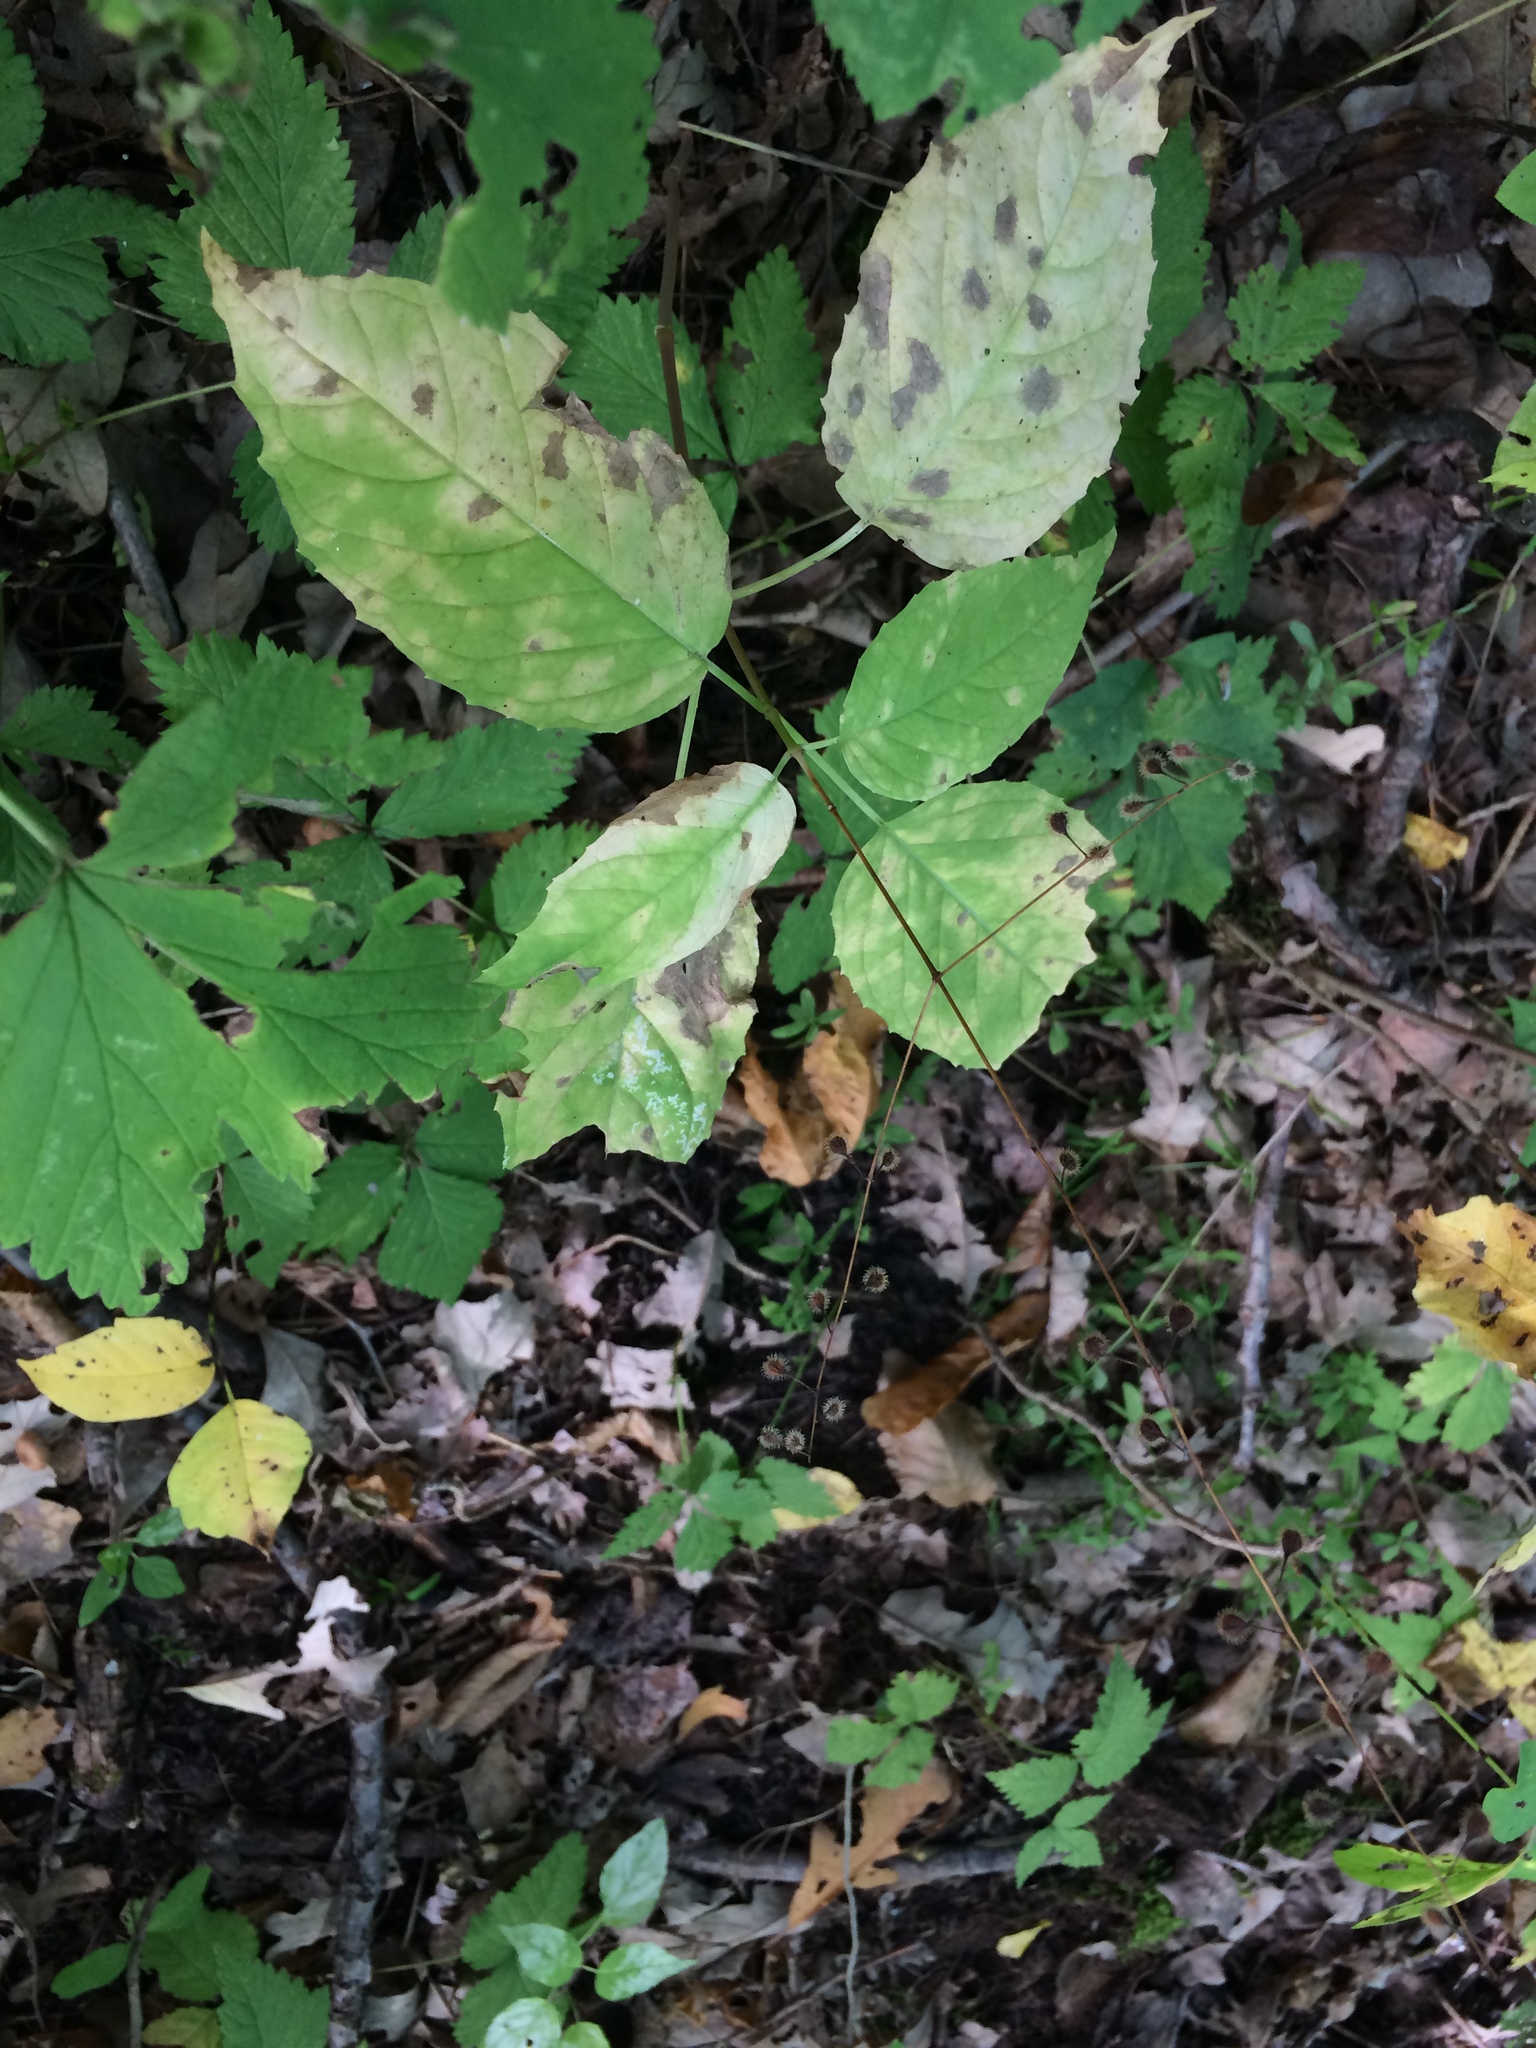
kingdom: Plantae
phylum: Tracheophyta
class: Magnoliopsida
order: Myrtales
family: Onagraceae
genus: Circaea
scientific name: Circaea canadensis
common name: Broad-leaved enchanter's nightshade
